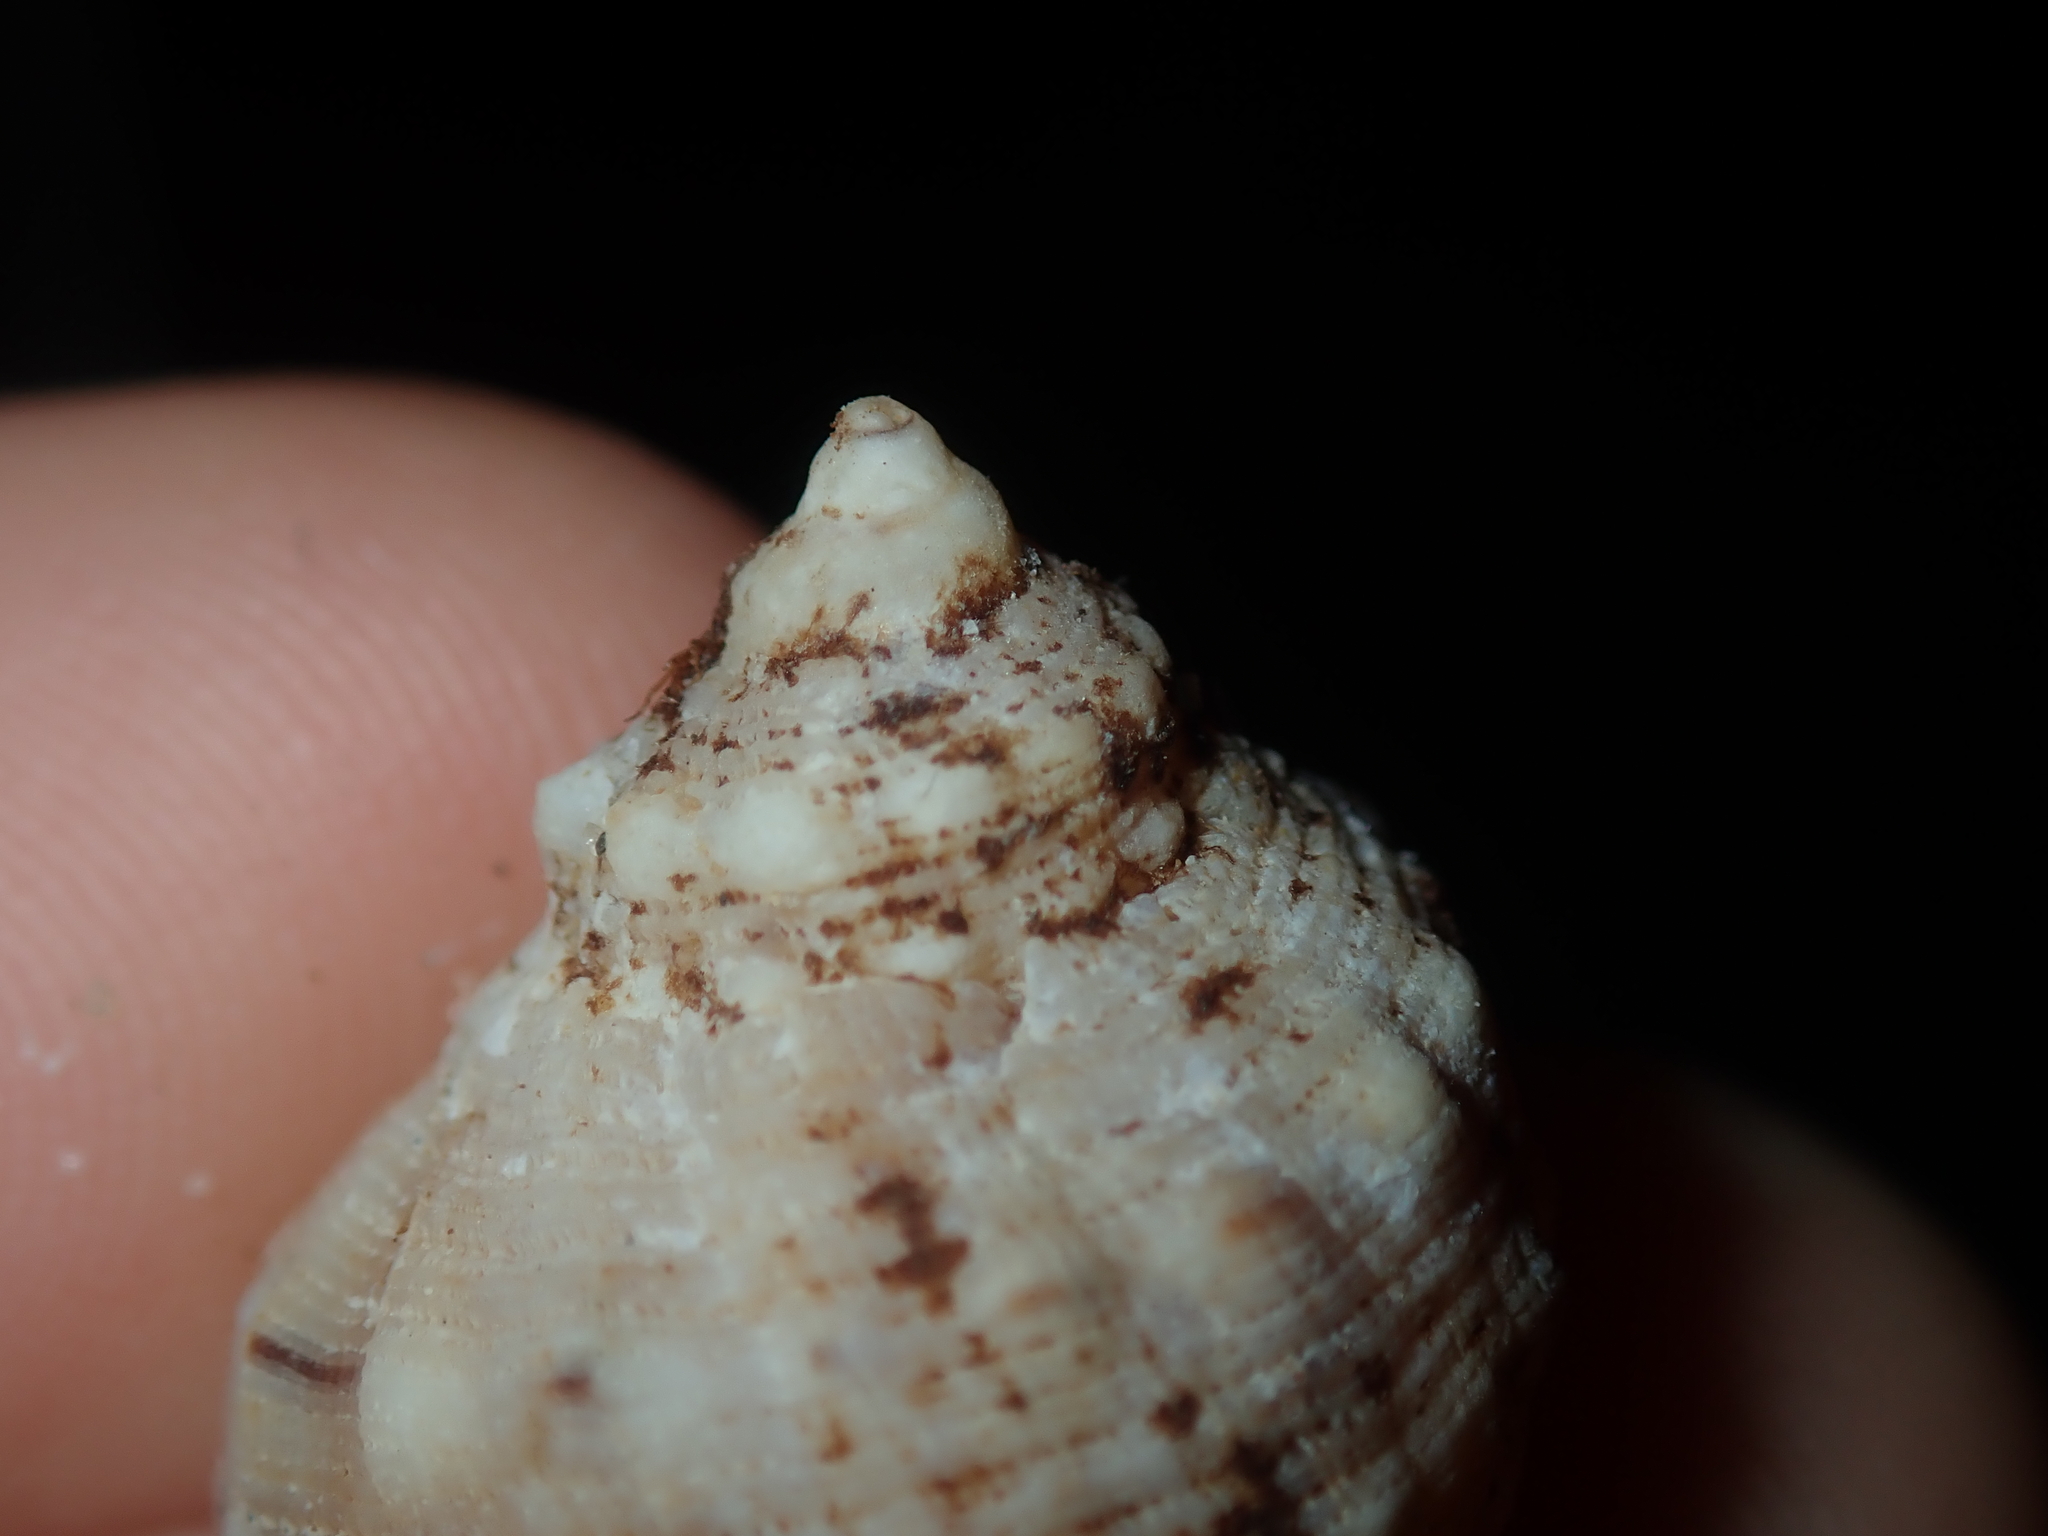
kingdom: Animalia
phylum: Mollusca
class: Gastropoda
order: Neogastropoda
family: Muricidae
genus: Dicathais
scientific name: Dicathais orbita
